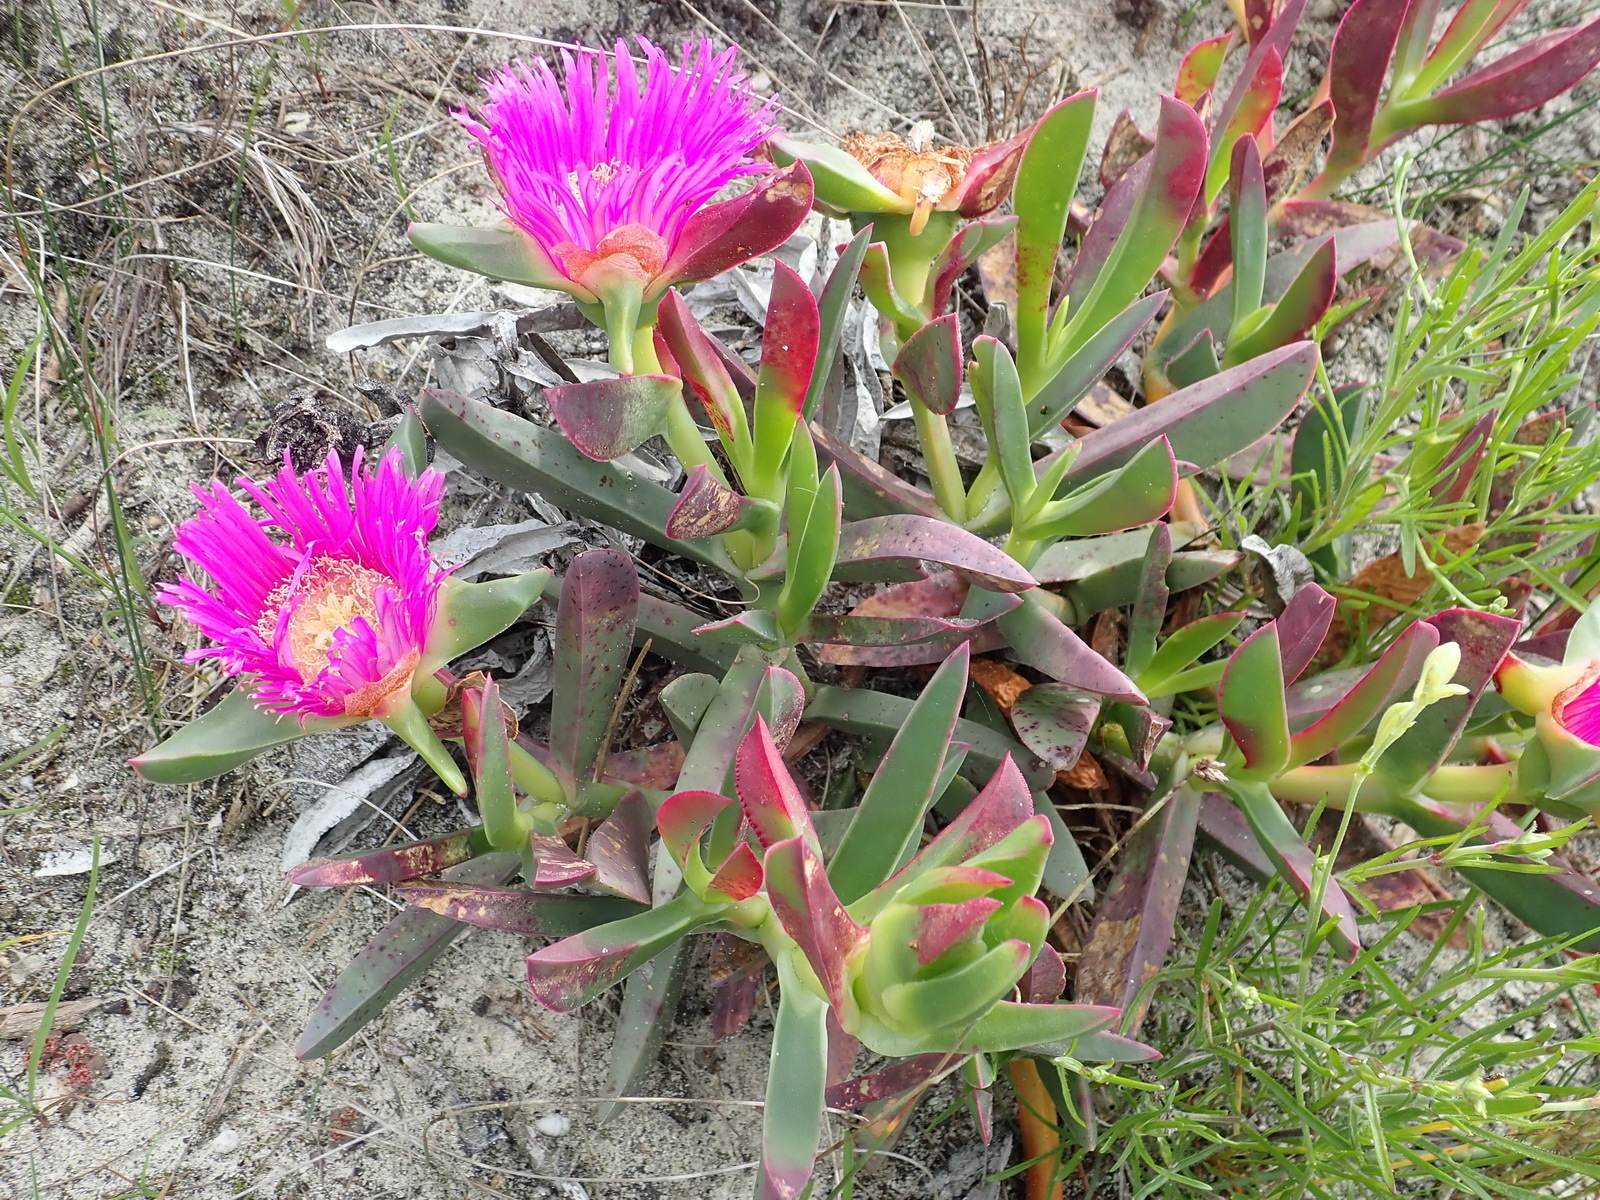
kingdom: Plantae
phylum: Tracheophyta
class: Magnoliopsida
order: Caryophyllales
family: Aizoaceae
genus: Carpobrotus
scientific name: Carpobrotus acinaciformis
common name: Sally-my-handsome
